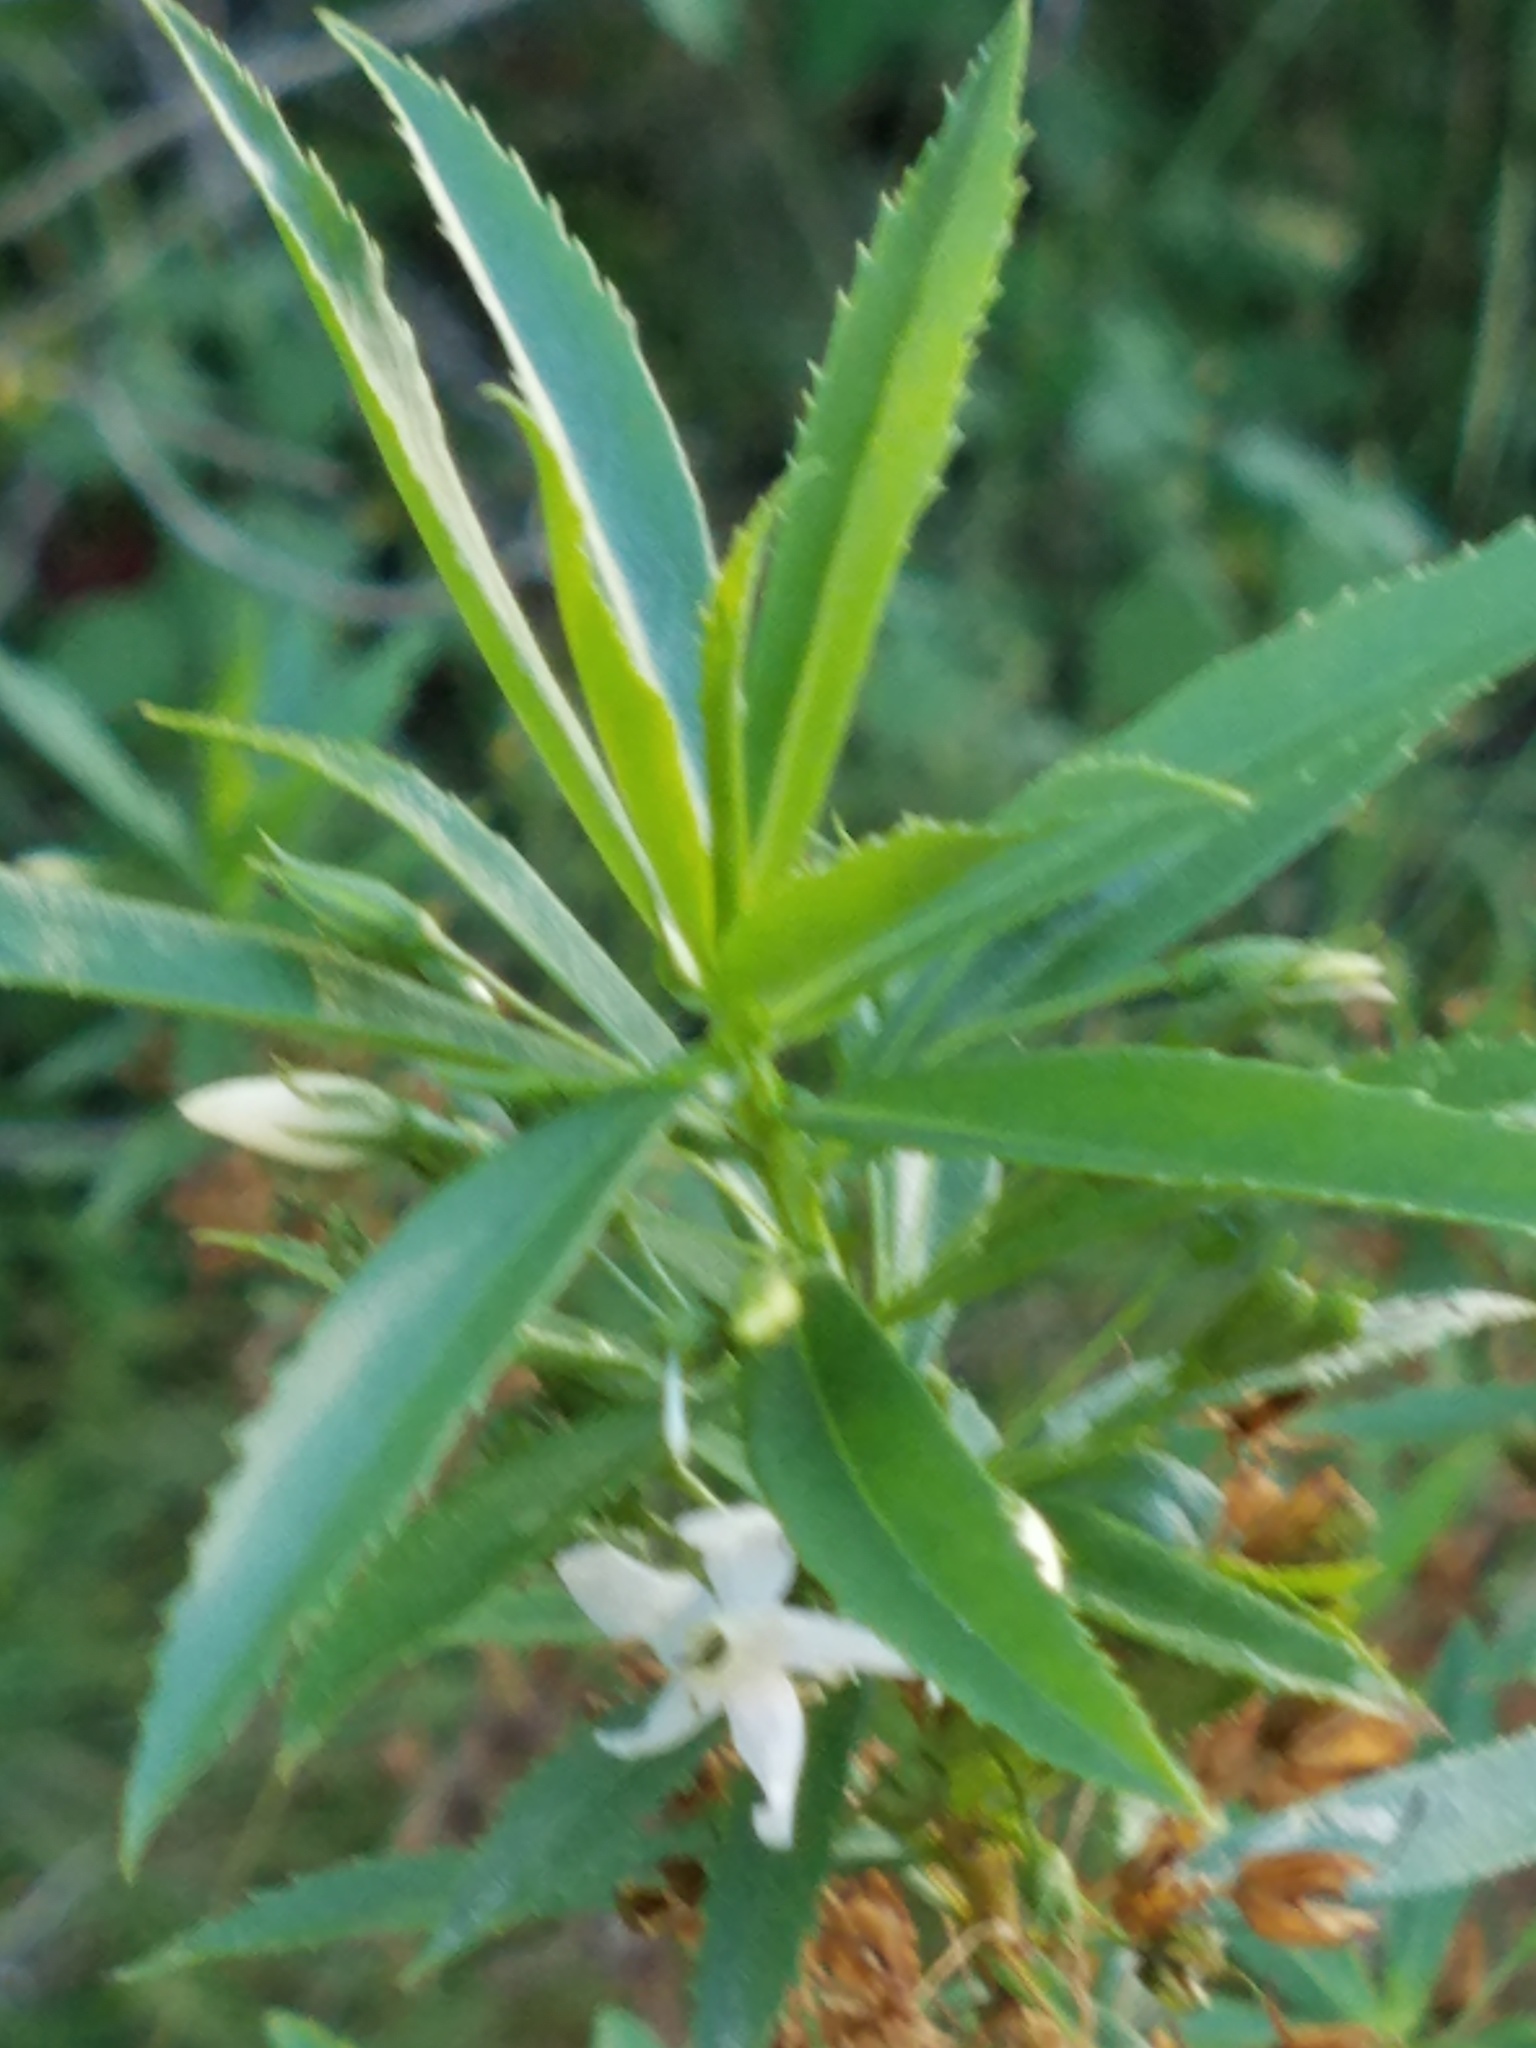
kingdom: Plantae
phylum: Tracheophyta
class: Magnoliopsida
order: Lamiales
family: Scrophulariaceae
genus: Capraria
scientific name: Capraria mexicana
